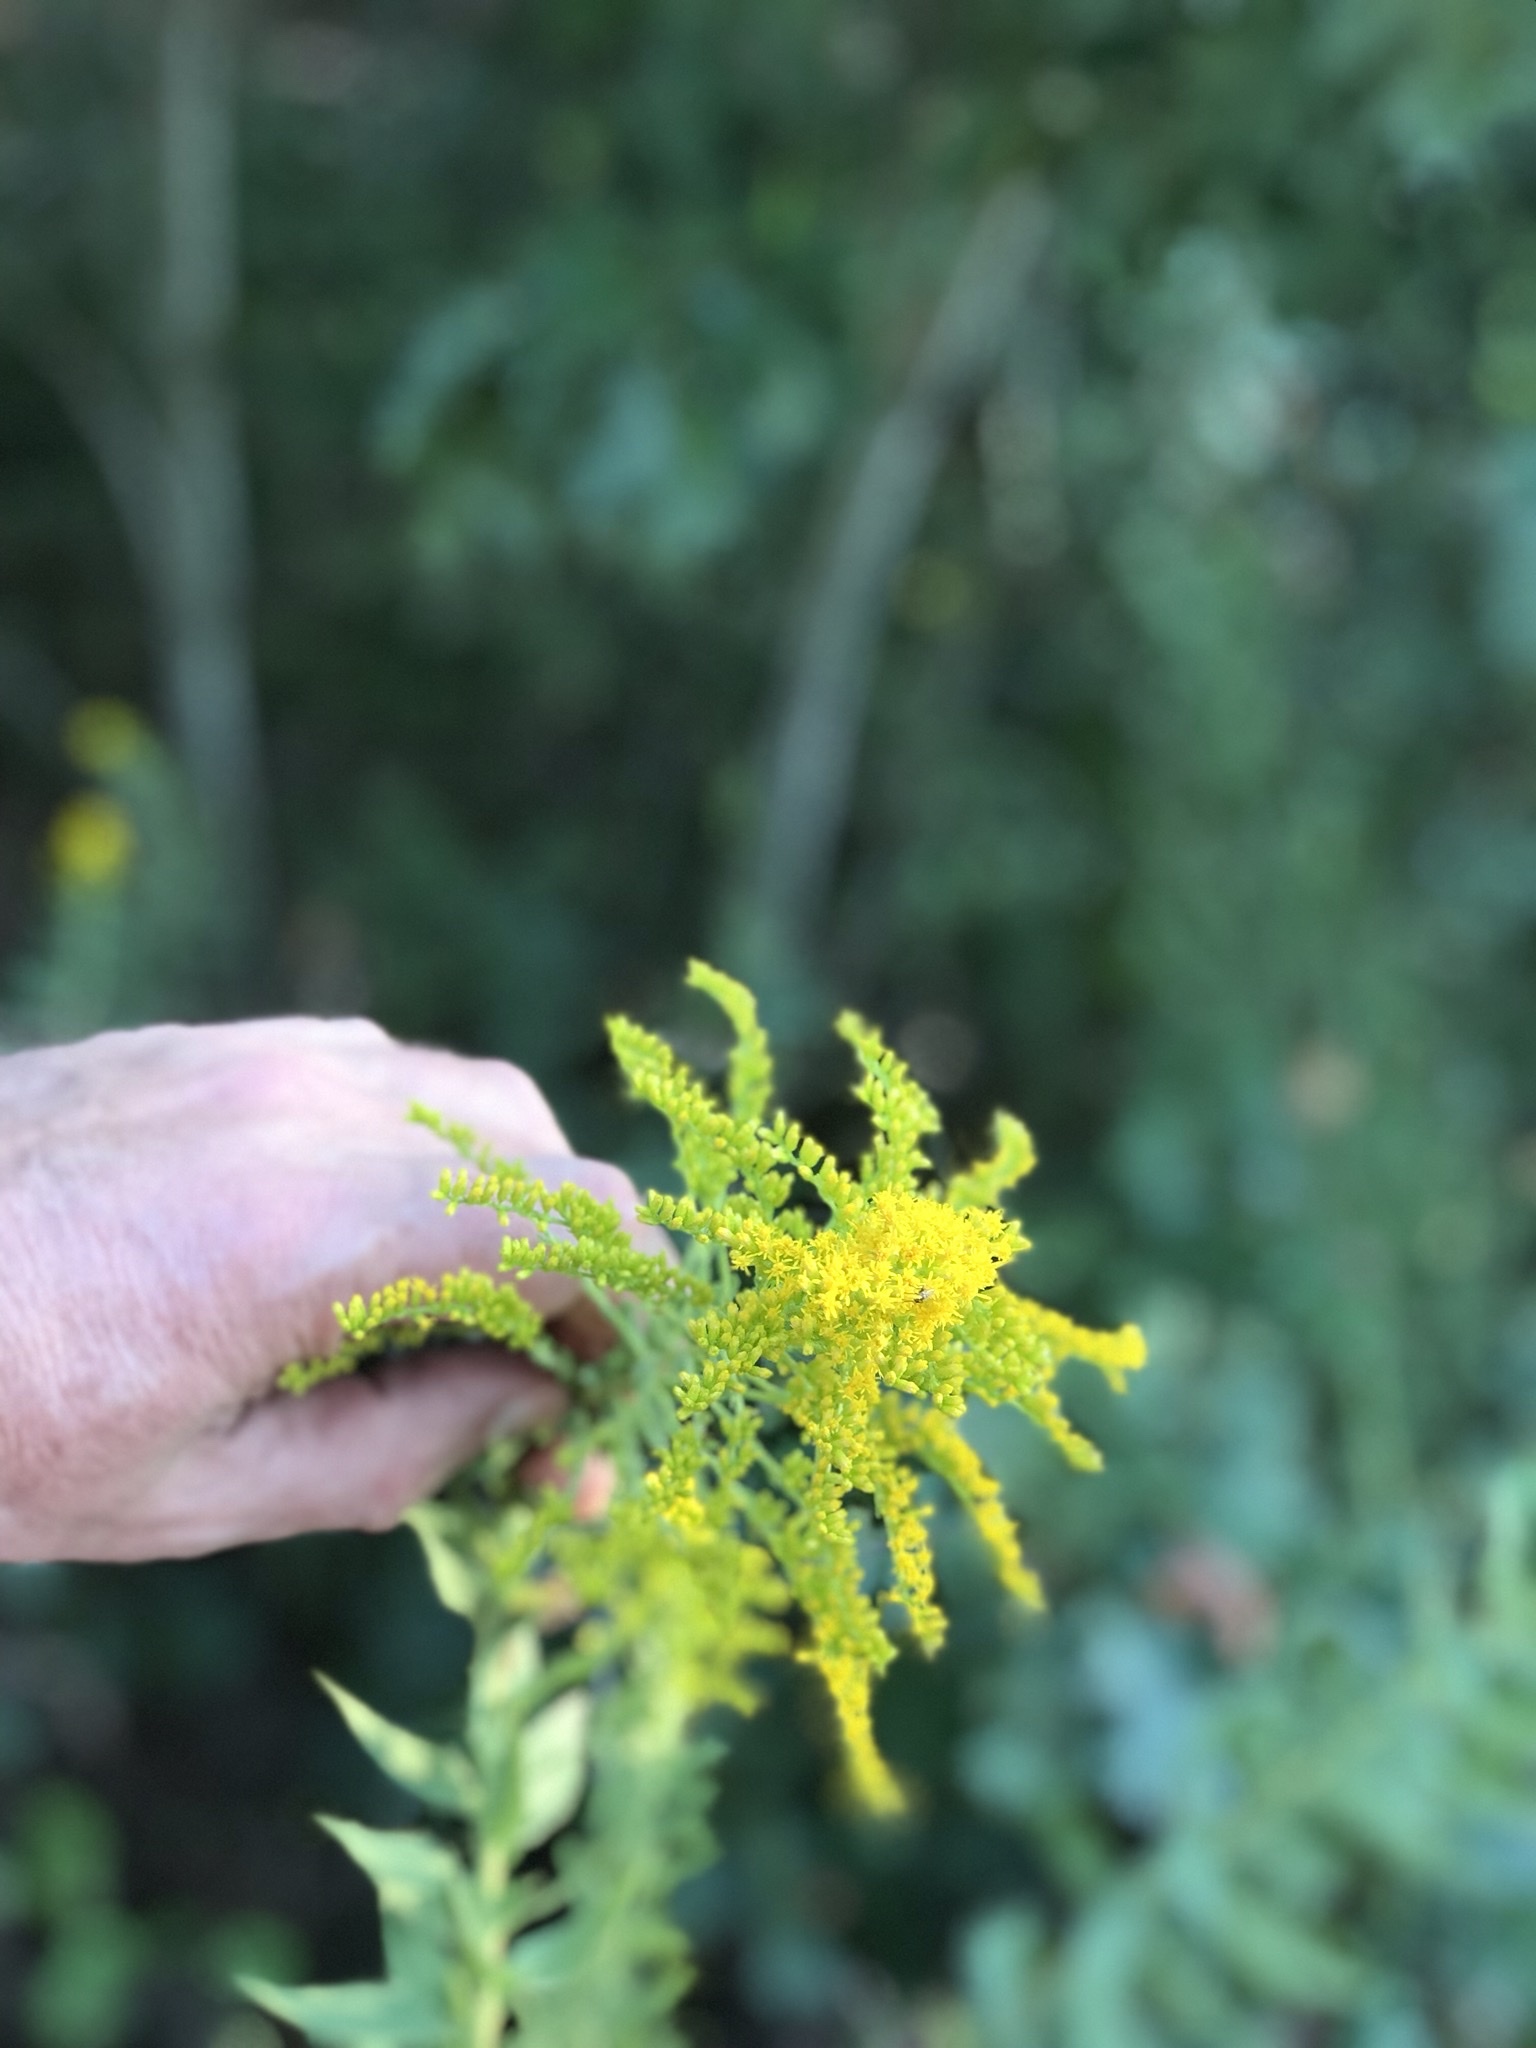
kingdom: Plantae
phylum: Tracheophyta
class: Magnoliopsida
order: Asterales
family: Asteraceae
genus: Solidago
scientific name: Solidago
